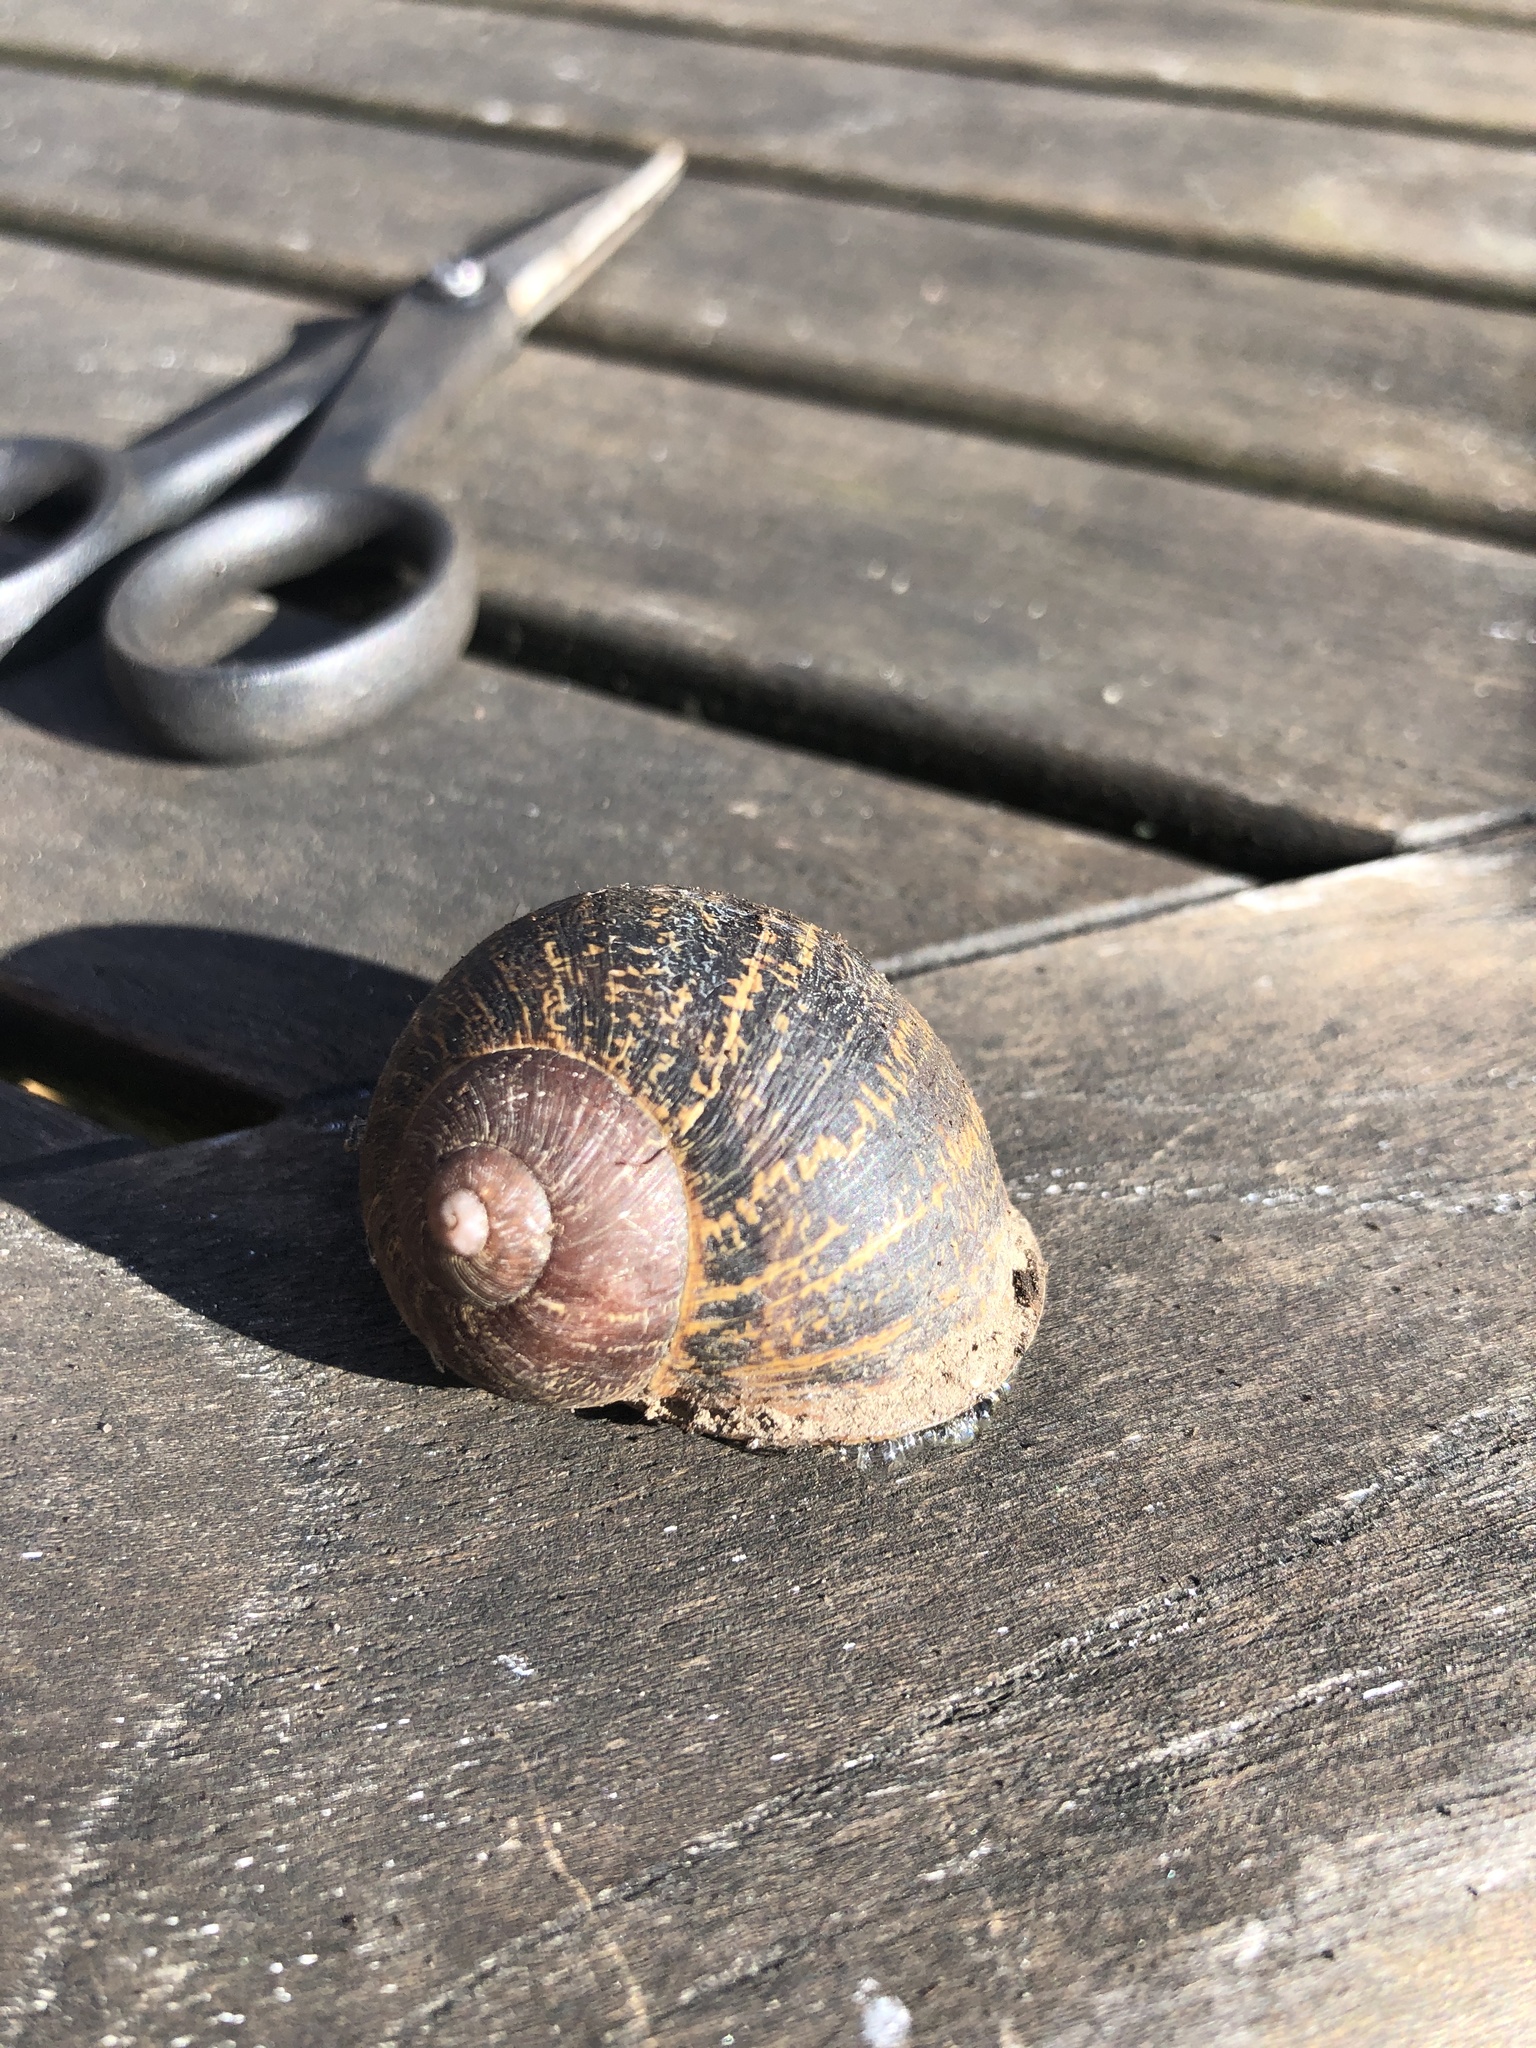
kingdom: Animalia
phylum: Mollusca
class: Gastropoda
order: Stylommatophora
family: Helicidae
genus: Cornu
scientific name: Cornu aspersum
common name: Brown garden snail
